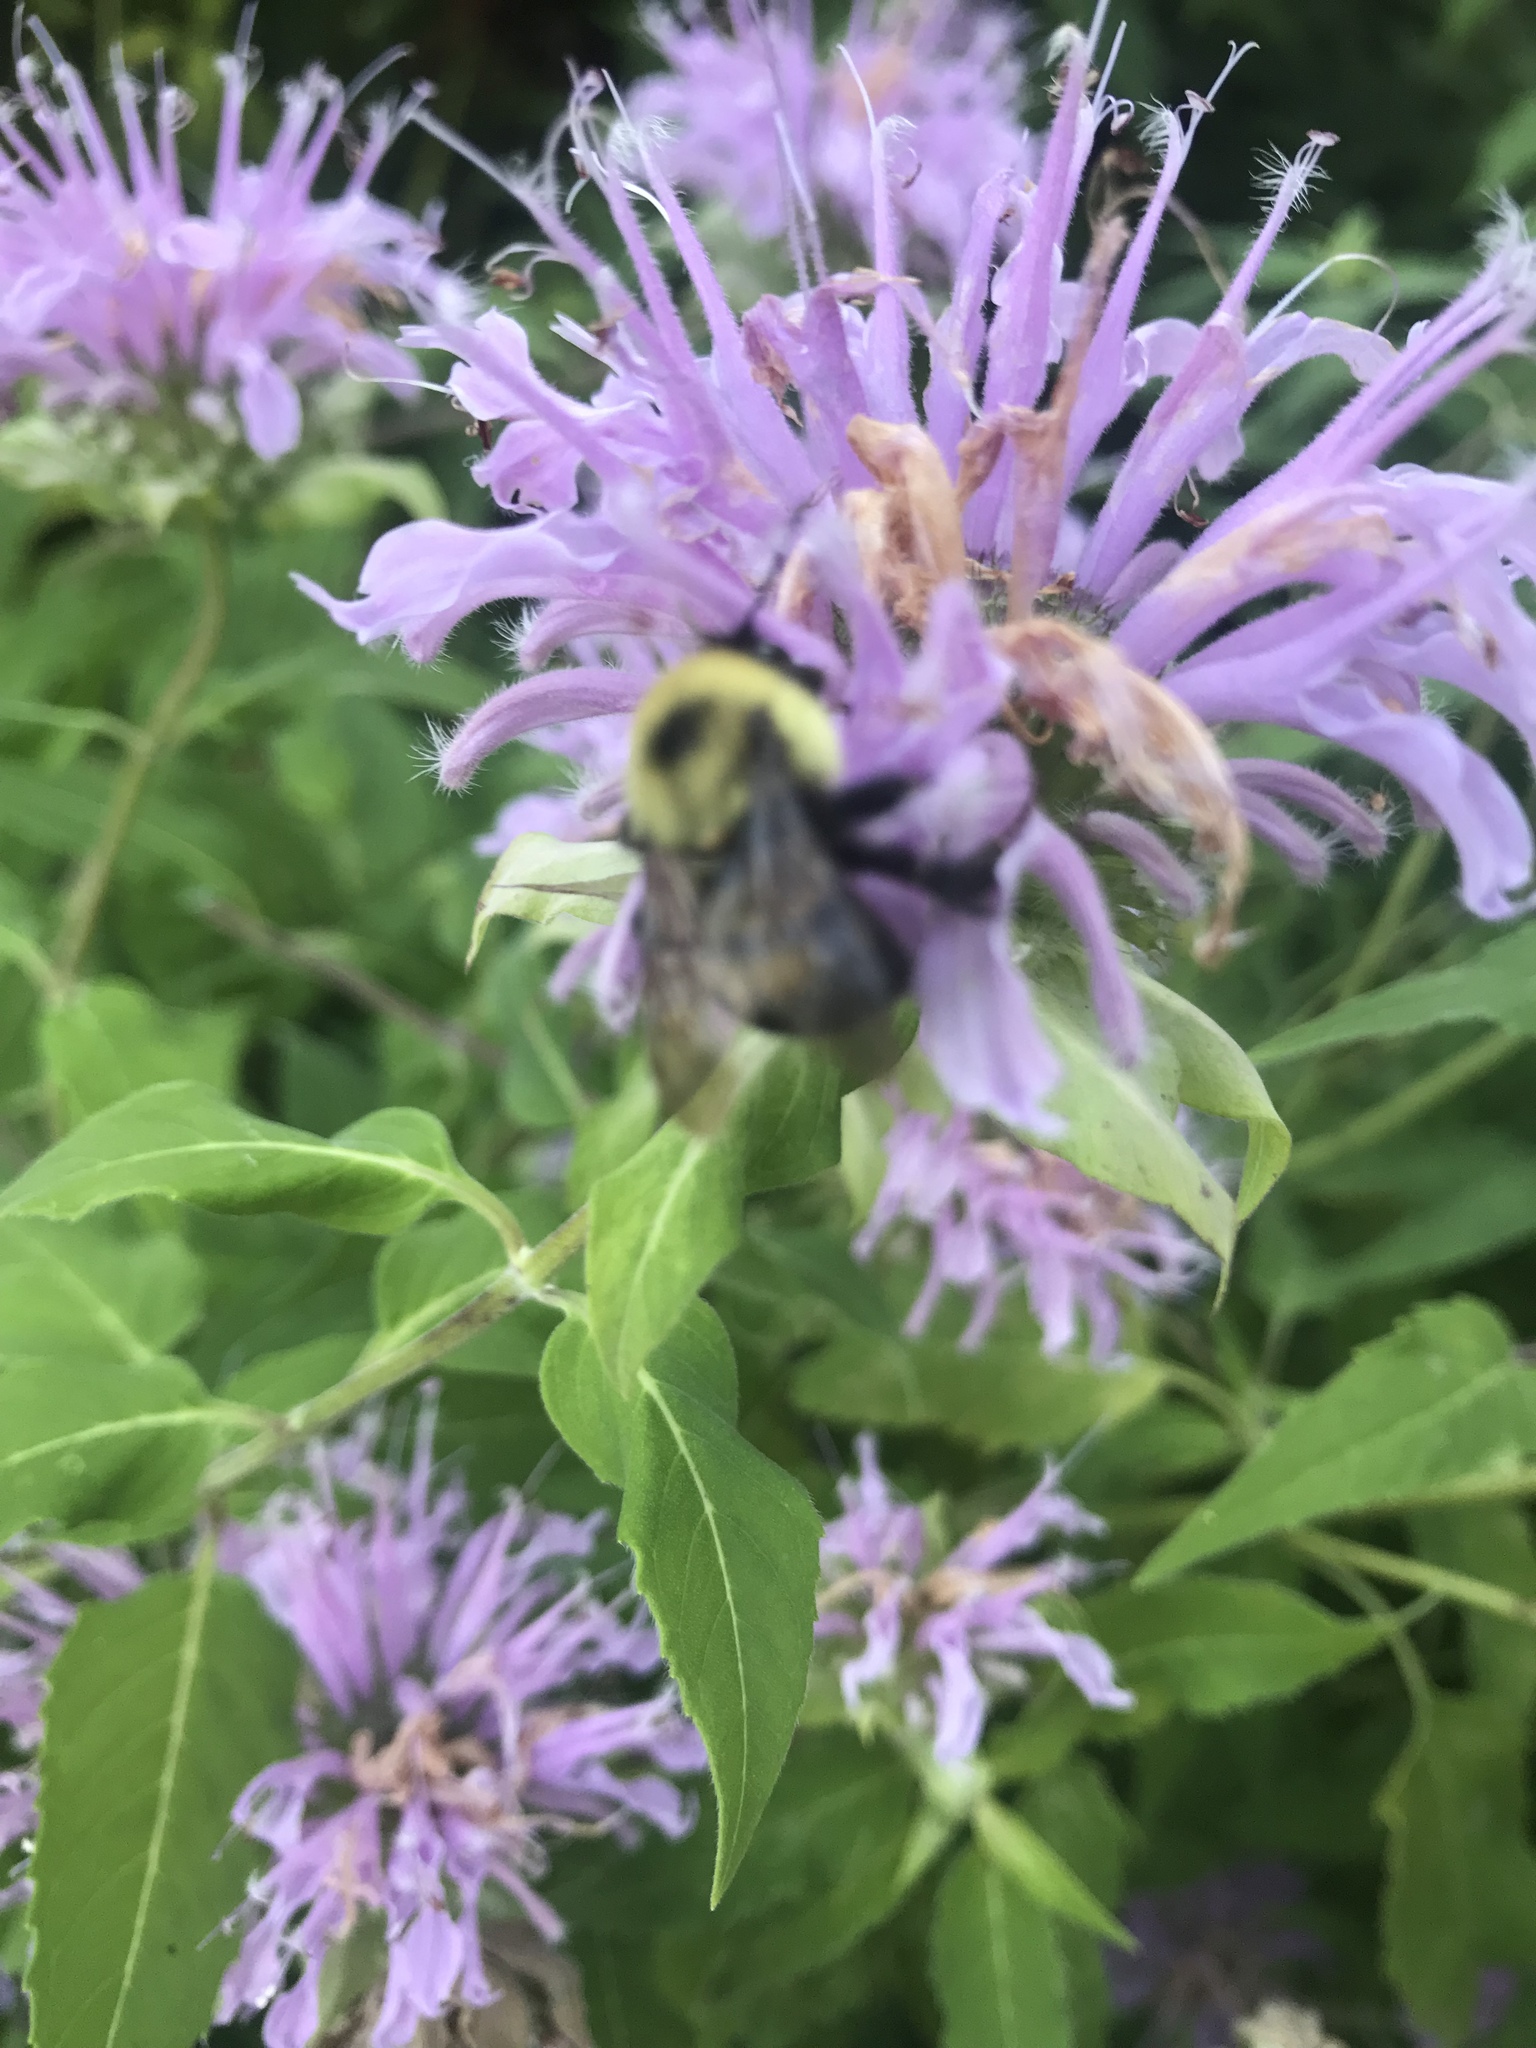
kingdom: Animalia
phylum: Arthropoda
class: Insecta
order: Hymenoptera
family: Apidae
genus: Bombus
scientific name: Bombus bimaculatus
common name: Two-spotted bumble bee
